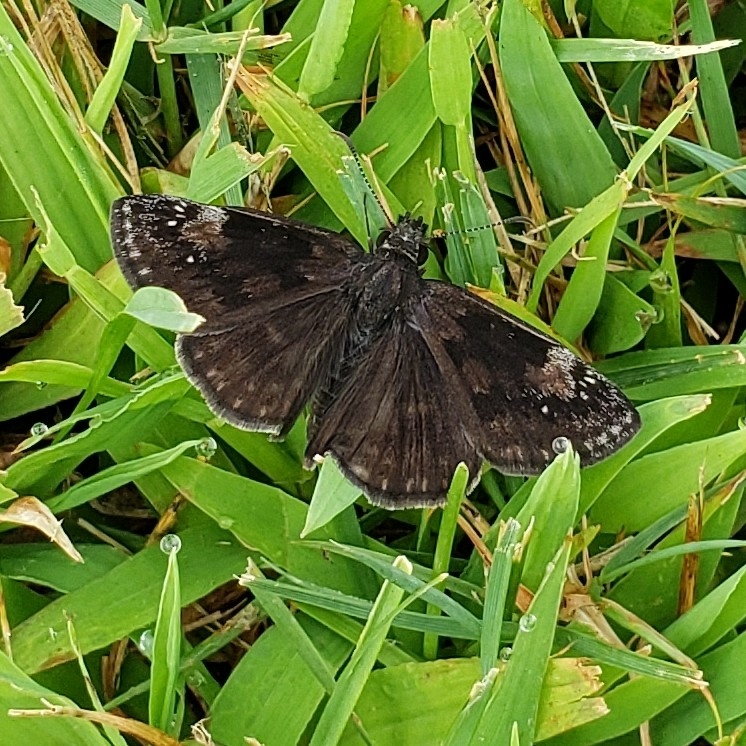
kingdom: Animalia
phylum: Arthropoda
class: Insecta
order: Lepidoptera
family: Hesperiidae
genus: Erynnis
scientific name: Erynnis baptisiae
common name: Wild indigo duskywing
